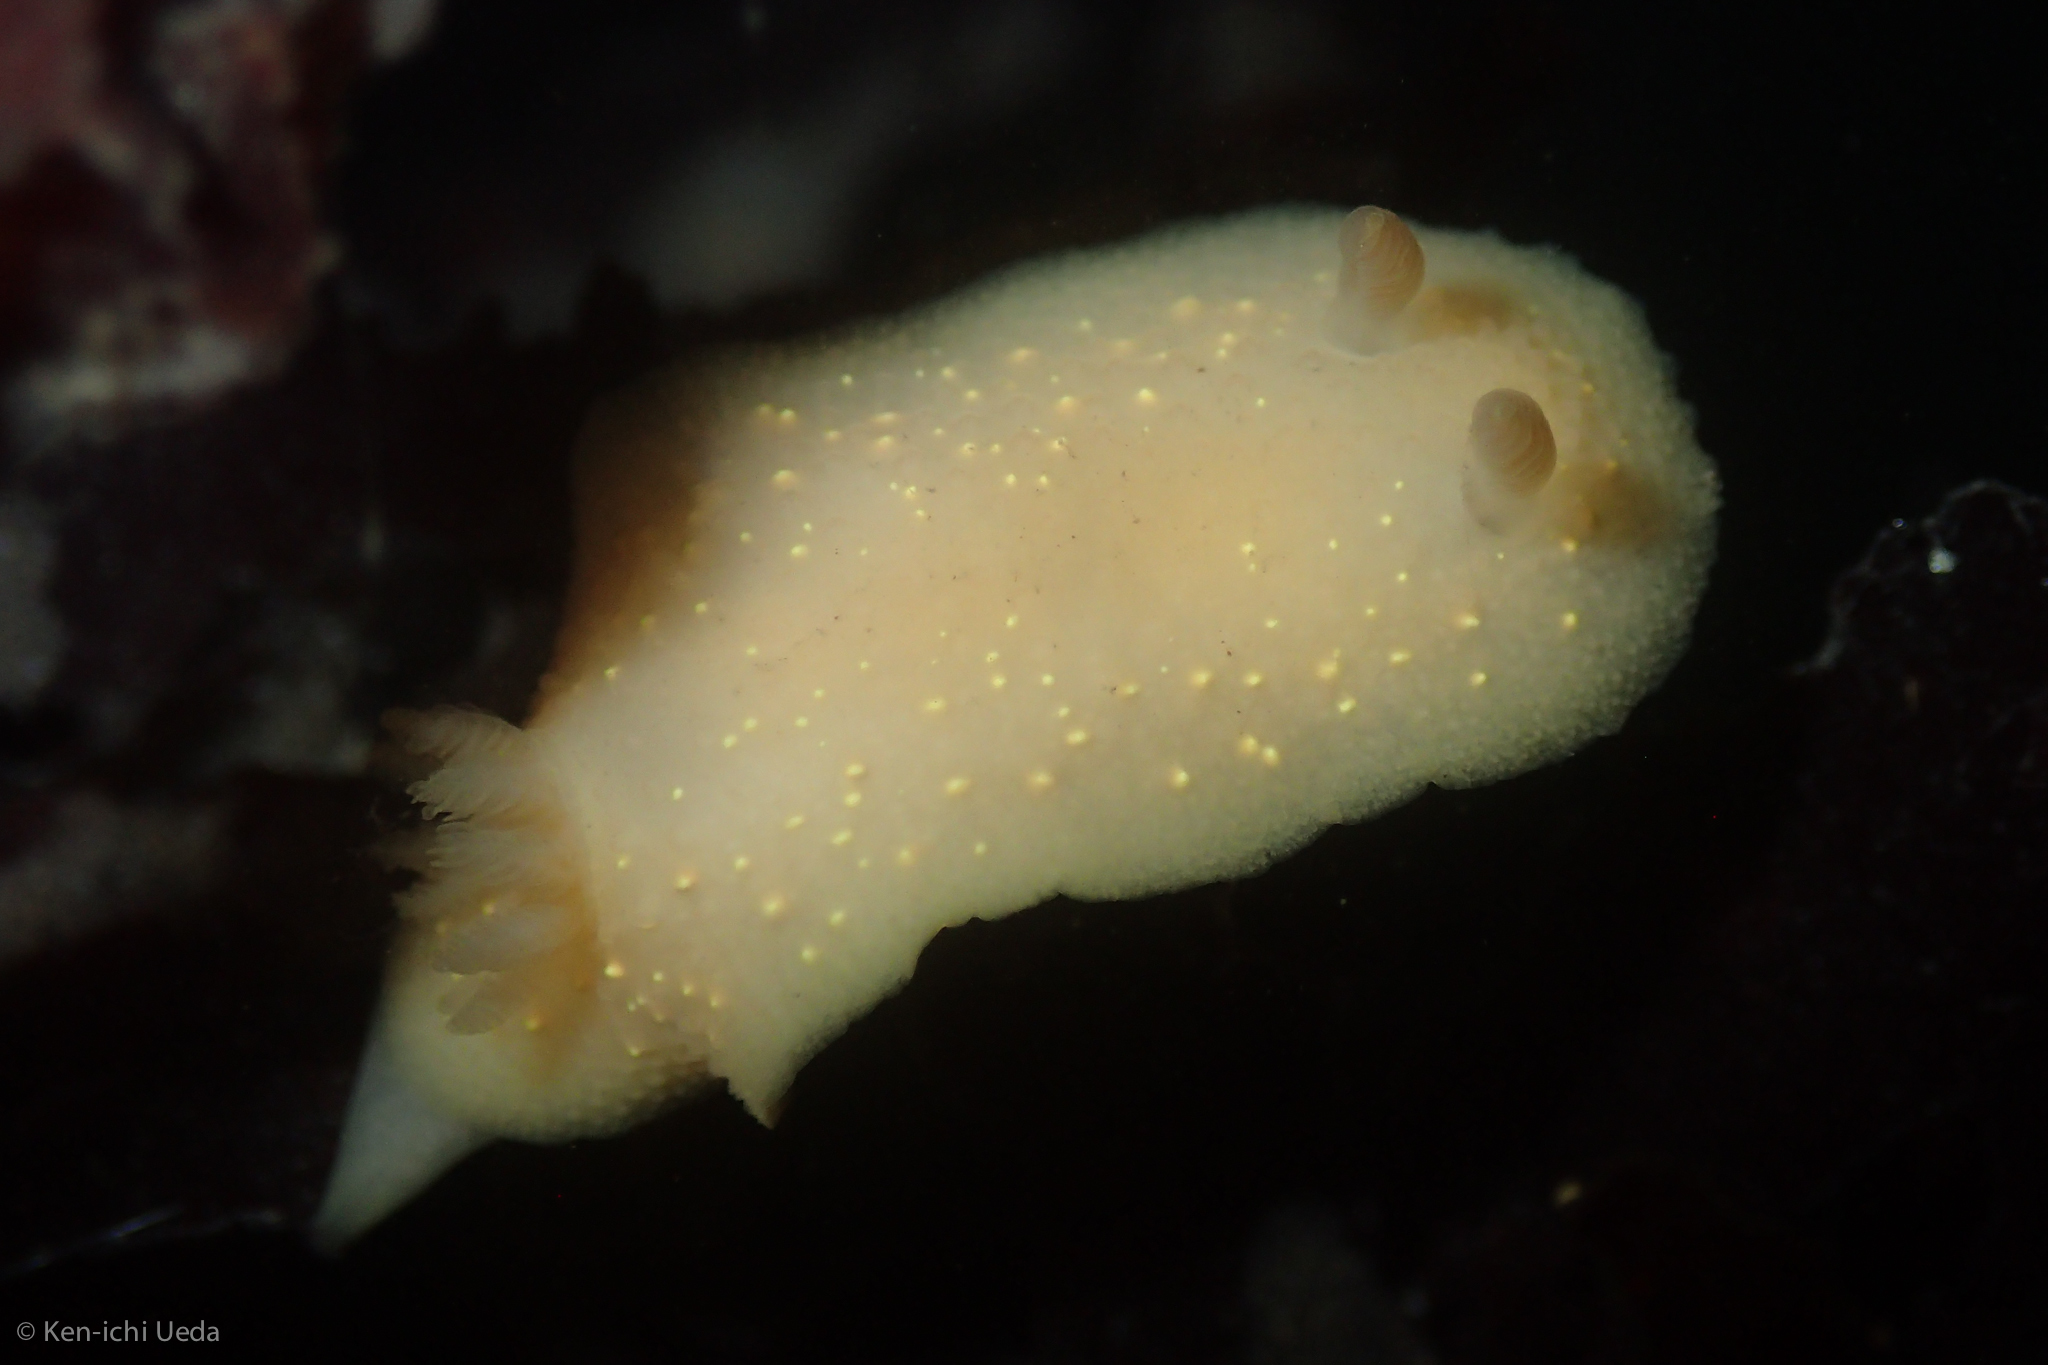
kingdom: Animalia
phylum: Mollusca
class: Gastropoda
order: Nudibranchia
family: Cadlinidae
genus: Cadlina
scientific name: Cadlina modesta
